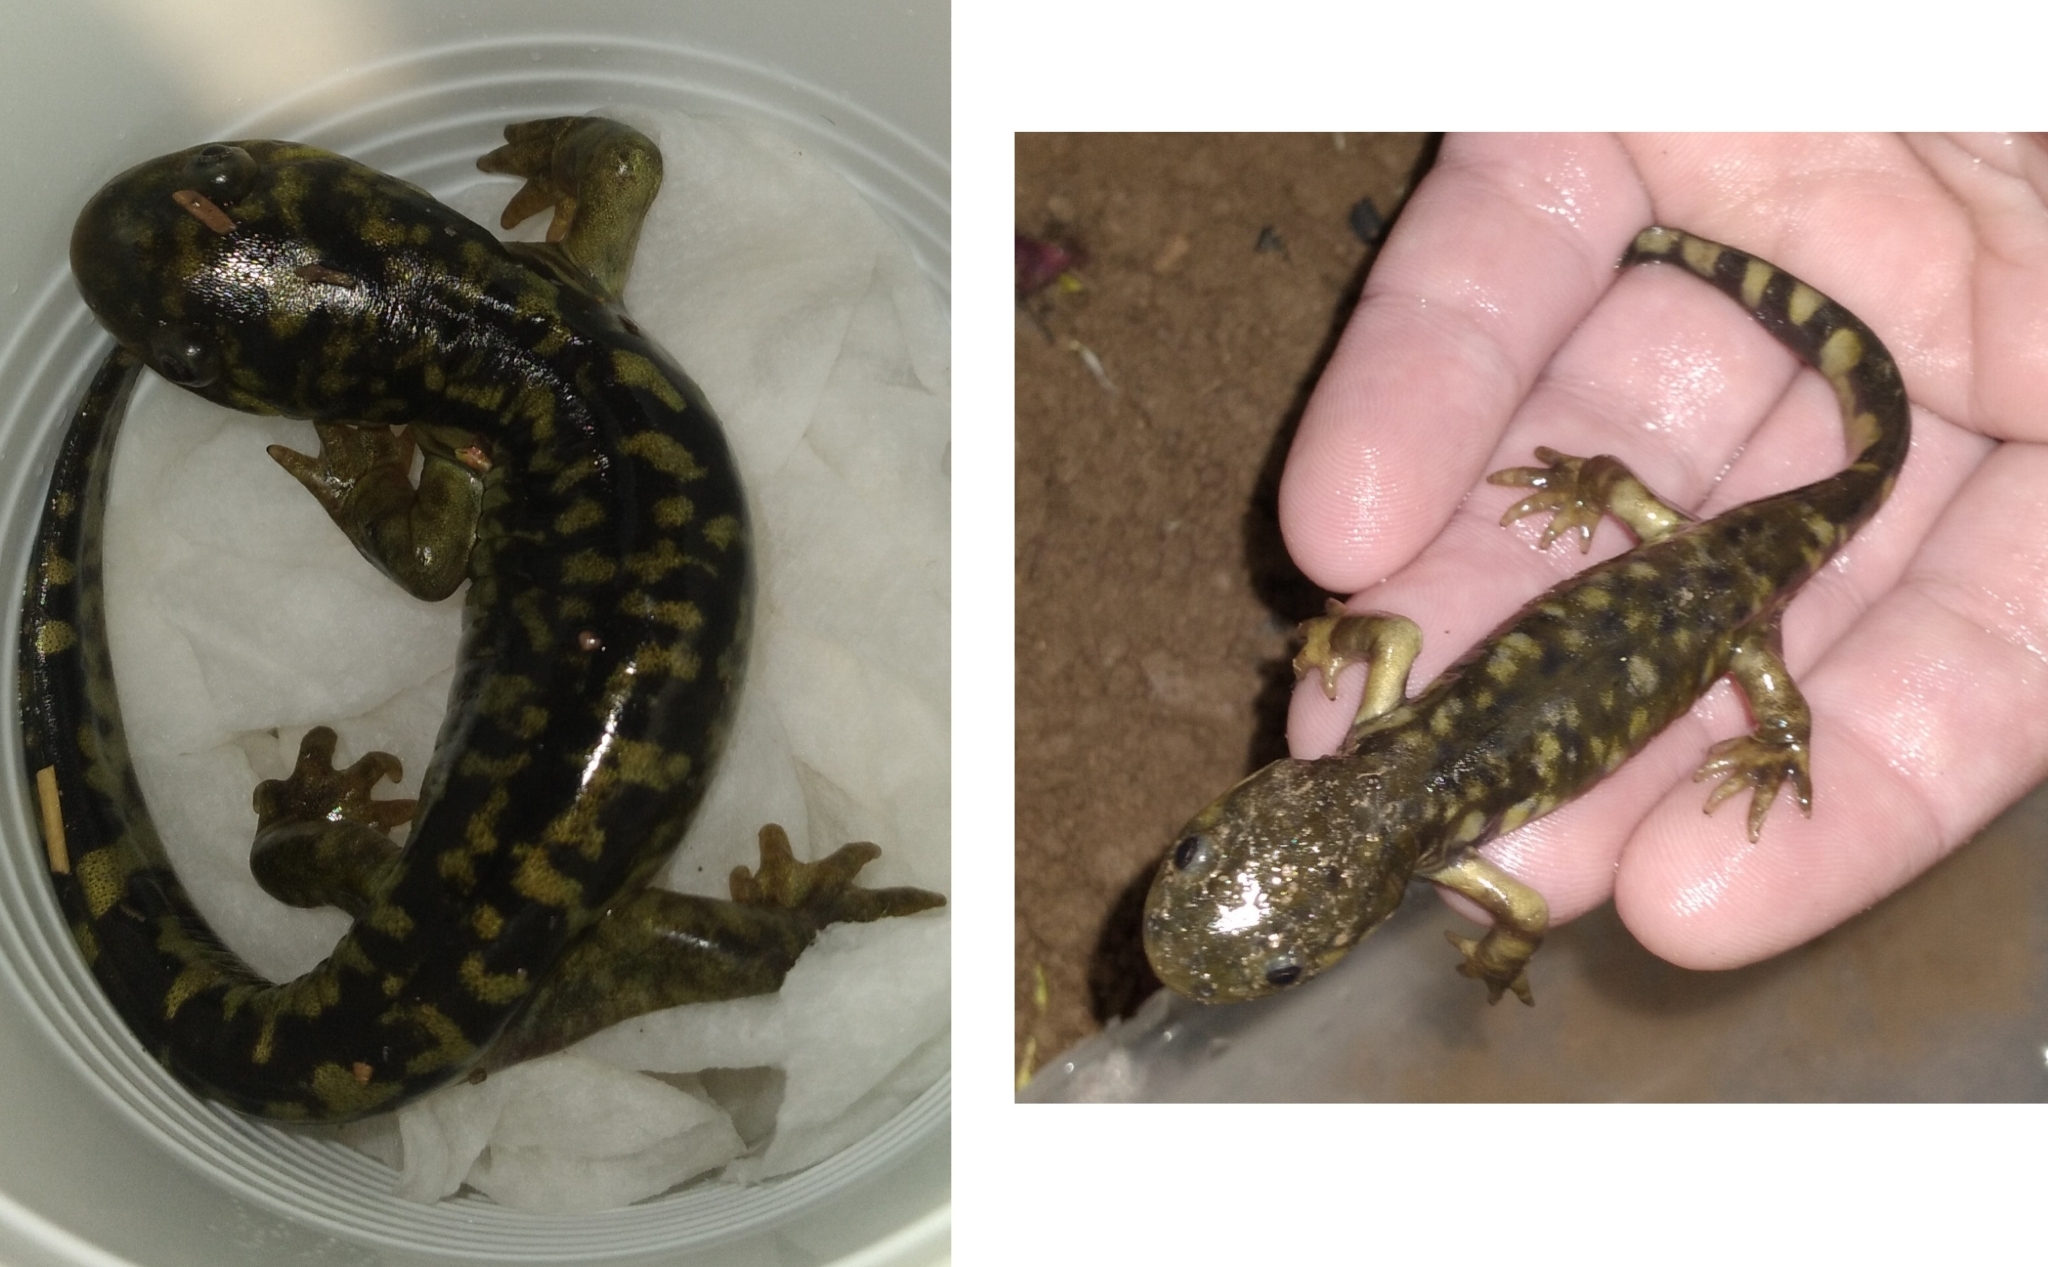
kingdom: Animalia
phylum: Chordata
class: Amphibia
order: Caudata
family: Ambystomatidae
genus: Ambystoma
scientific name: Ambystoma mavortium
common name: Western tiger salamander
